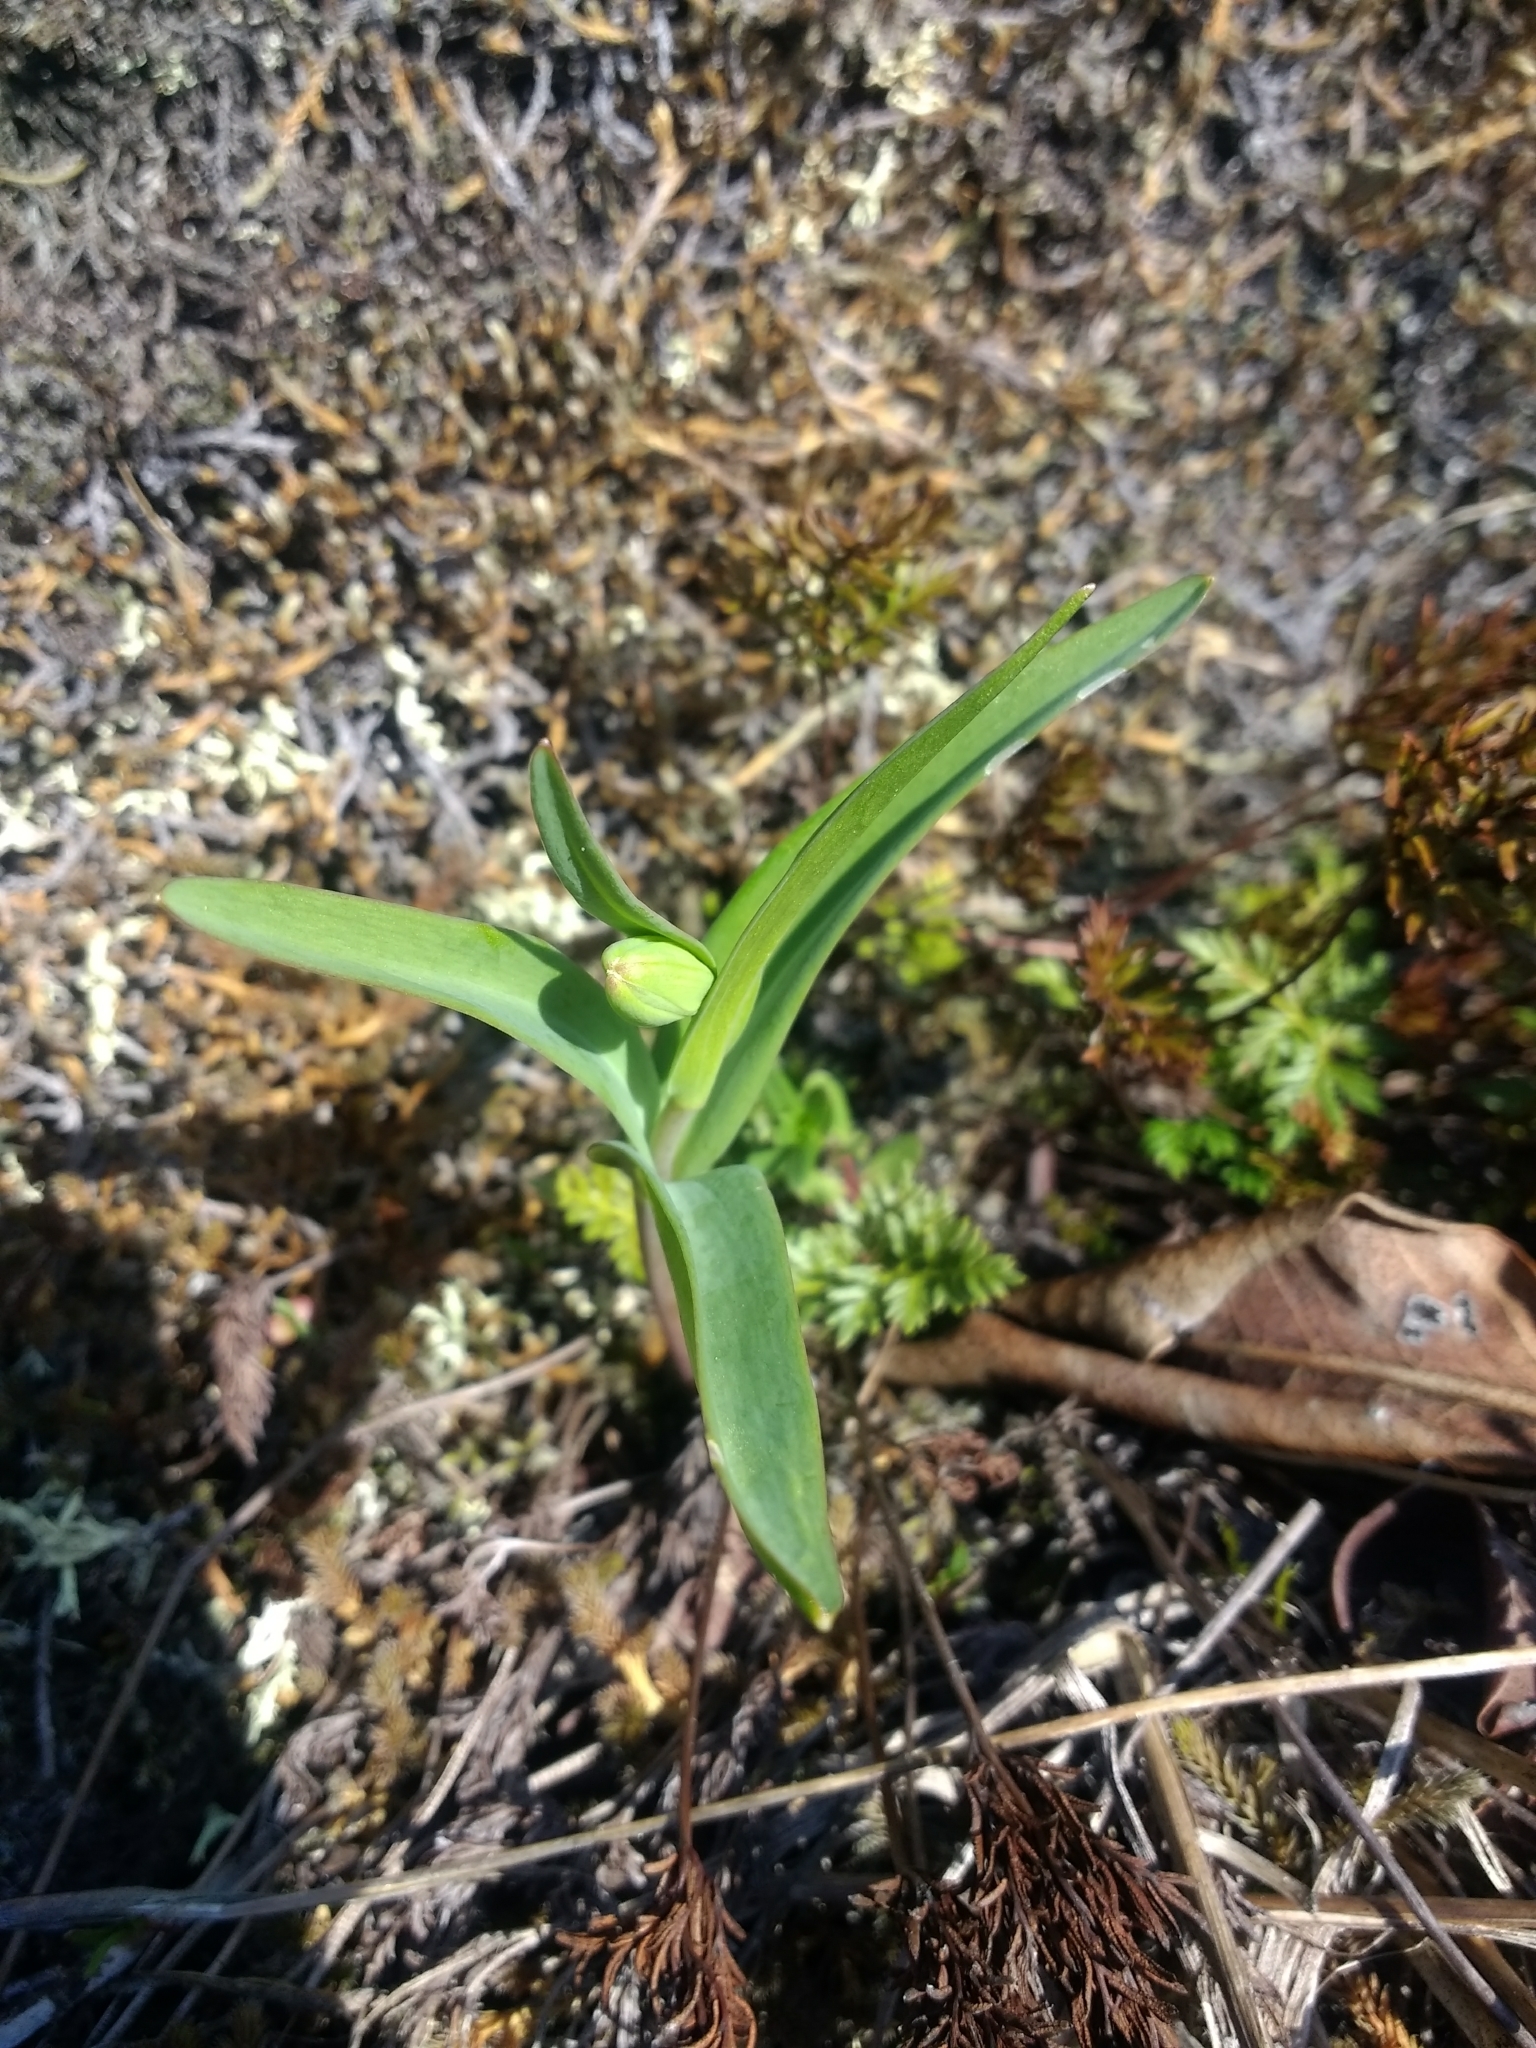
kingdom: Plantae
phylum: Tracheophyta
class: Liliopsida
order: Liliales
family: Liliaceae
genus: Fritillaria
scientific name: Fritillaria affinis
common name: Ojai fritillary
